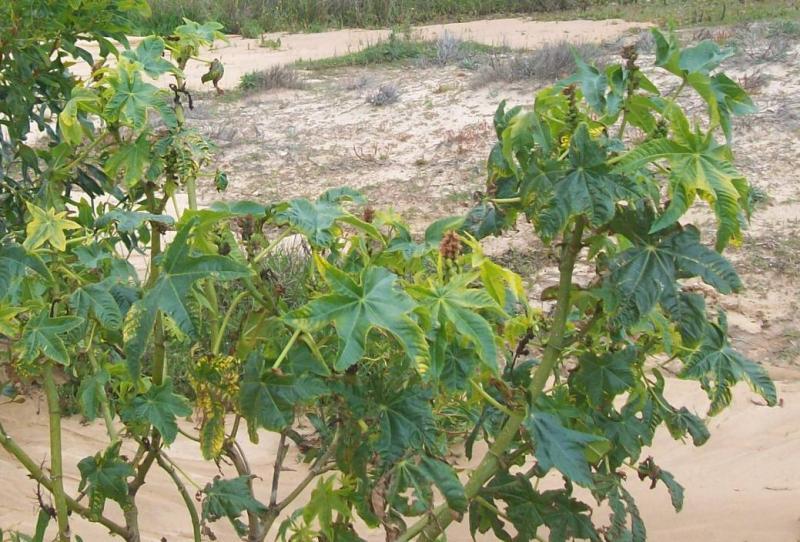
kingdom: Plantae
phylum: Tracheophyta
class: Magnoliopsida
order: Malpighiales
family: Euphorbiaceae
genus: Ricinus
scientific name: Ricinus communis
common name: Castor-oil-plant
